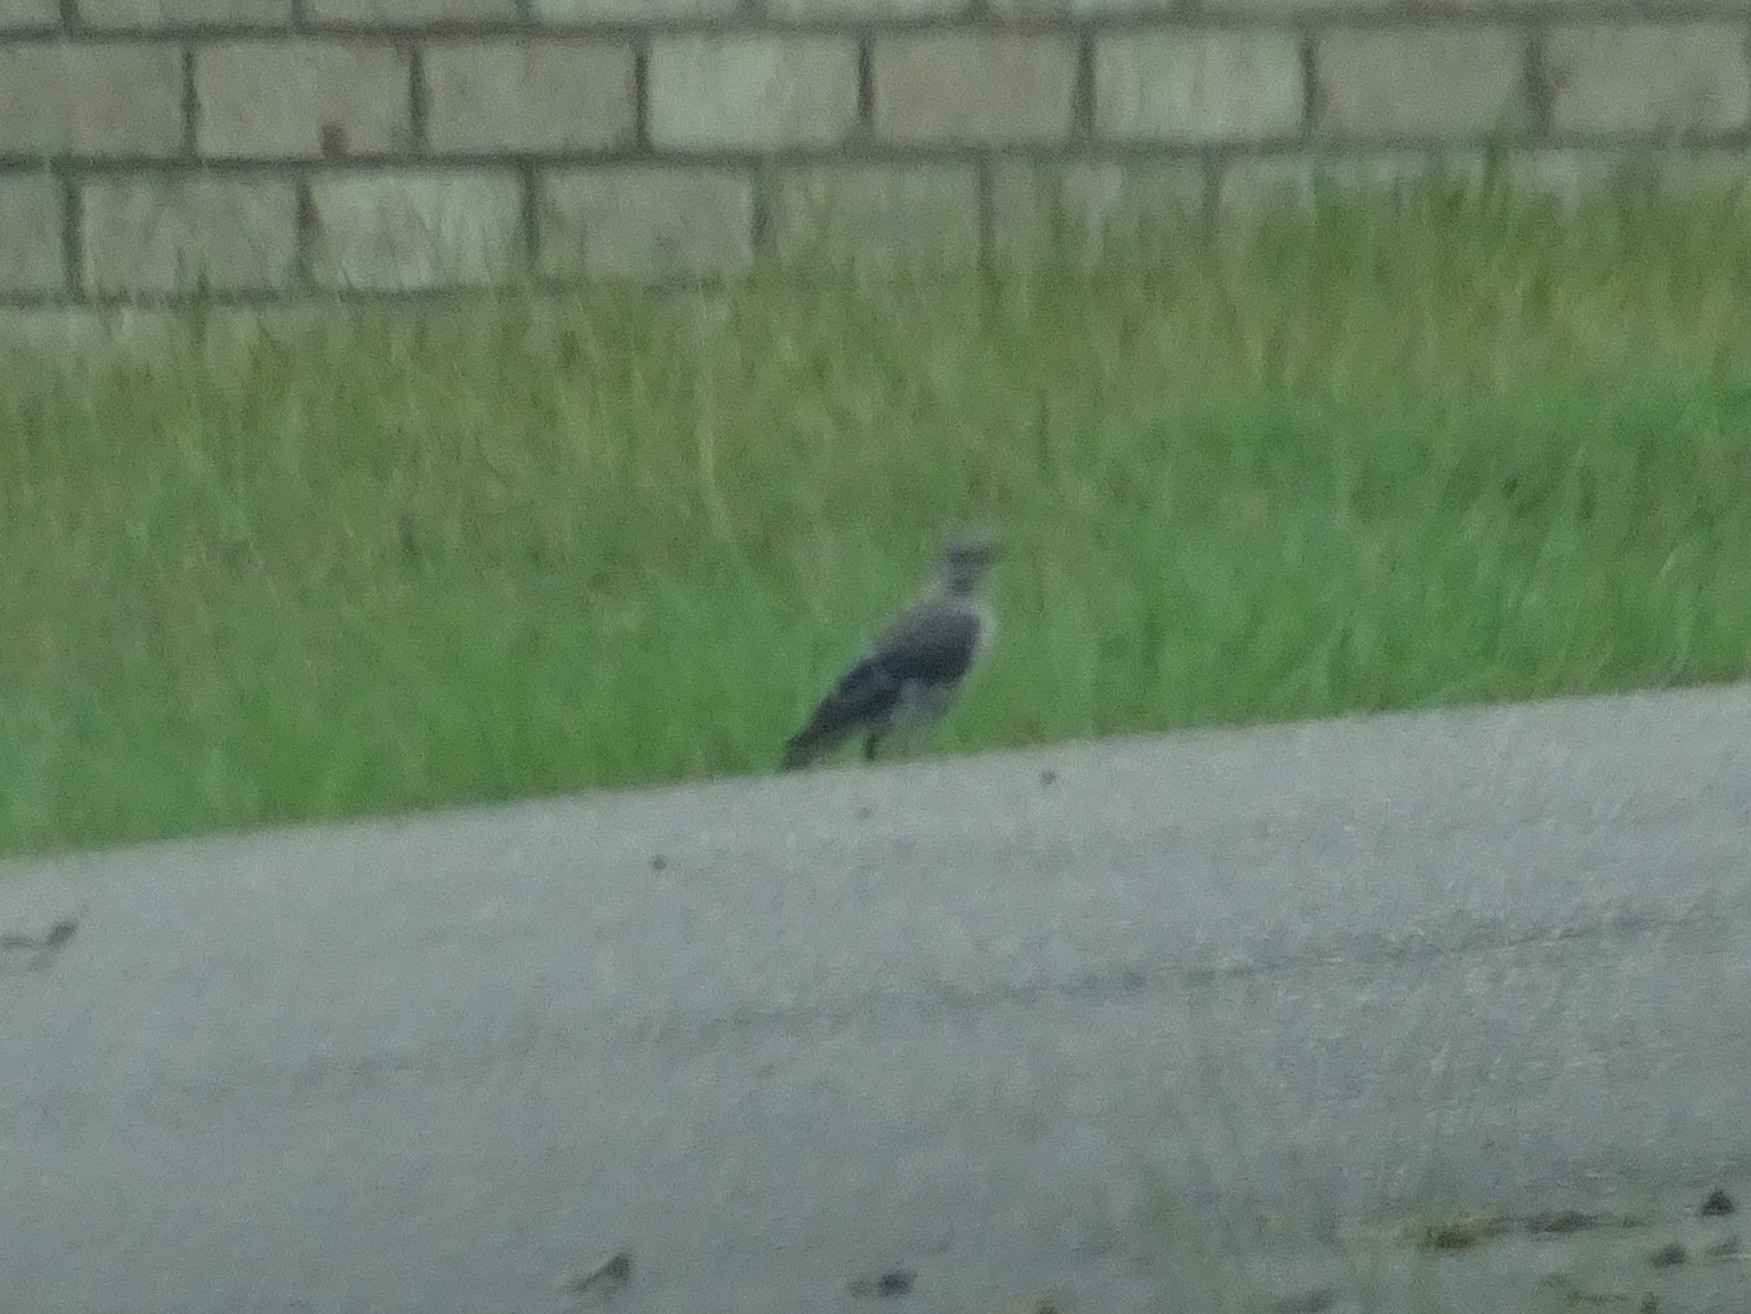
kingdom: Animalia
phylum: Chordata
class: Aves
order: Passeriformes
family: Mimidae
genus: Mimus
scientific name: Mimus polyglottos
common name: Northern mockingbird
